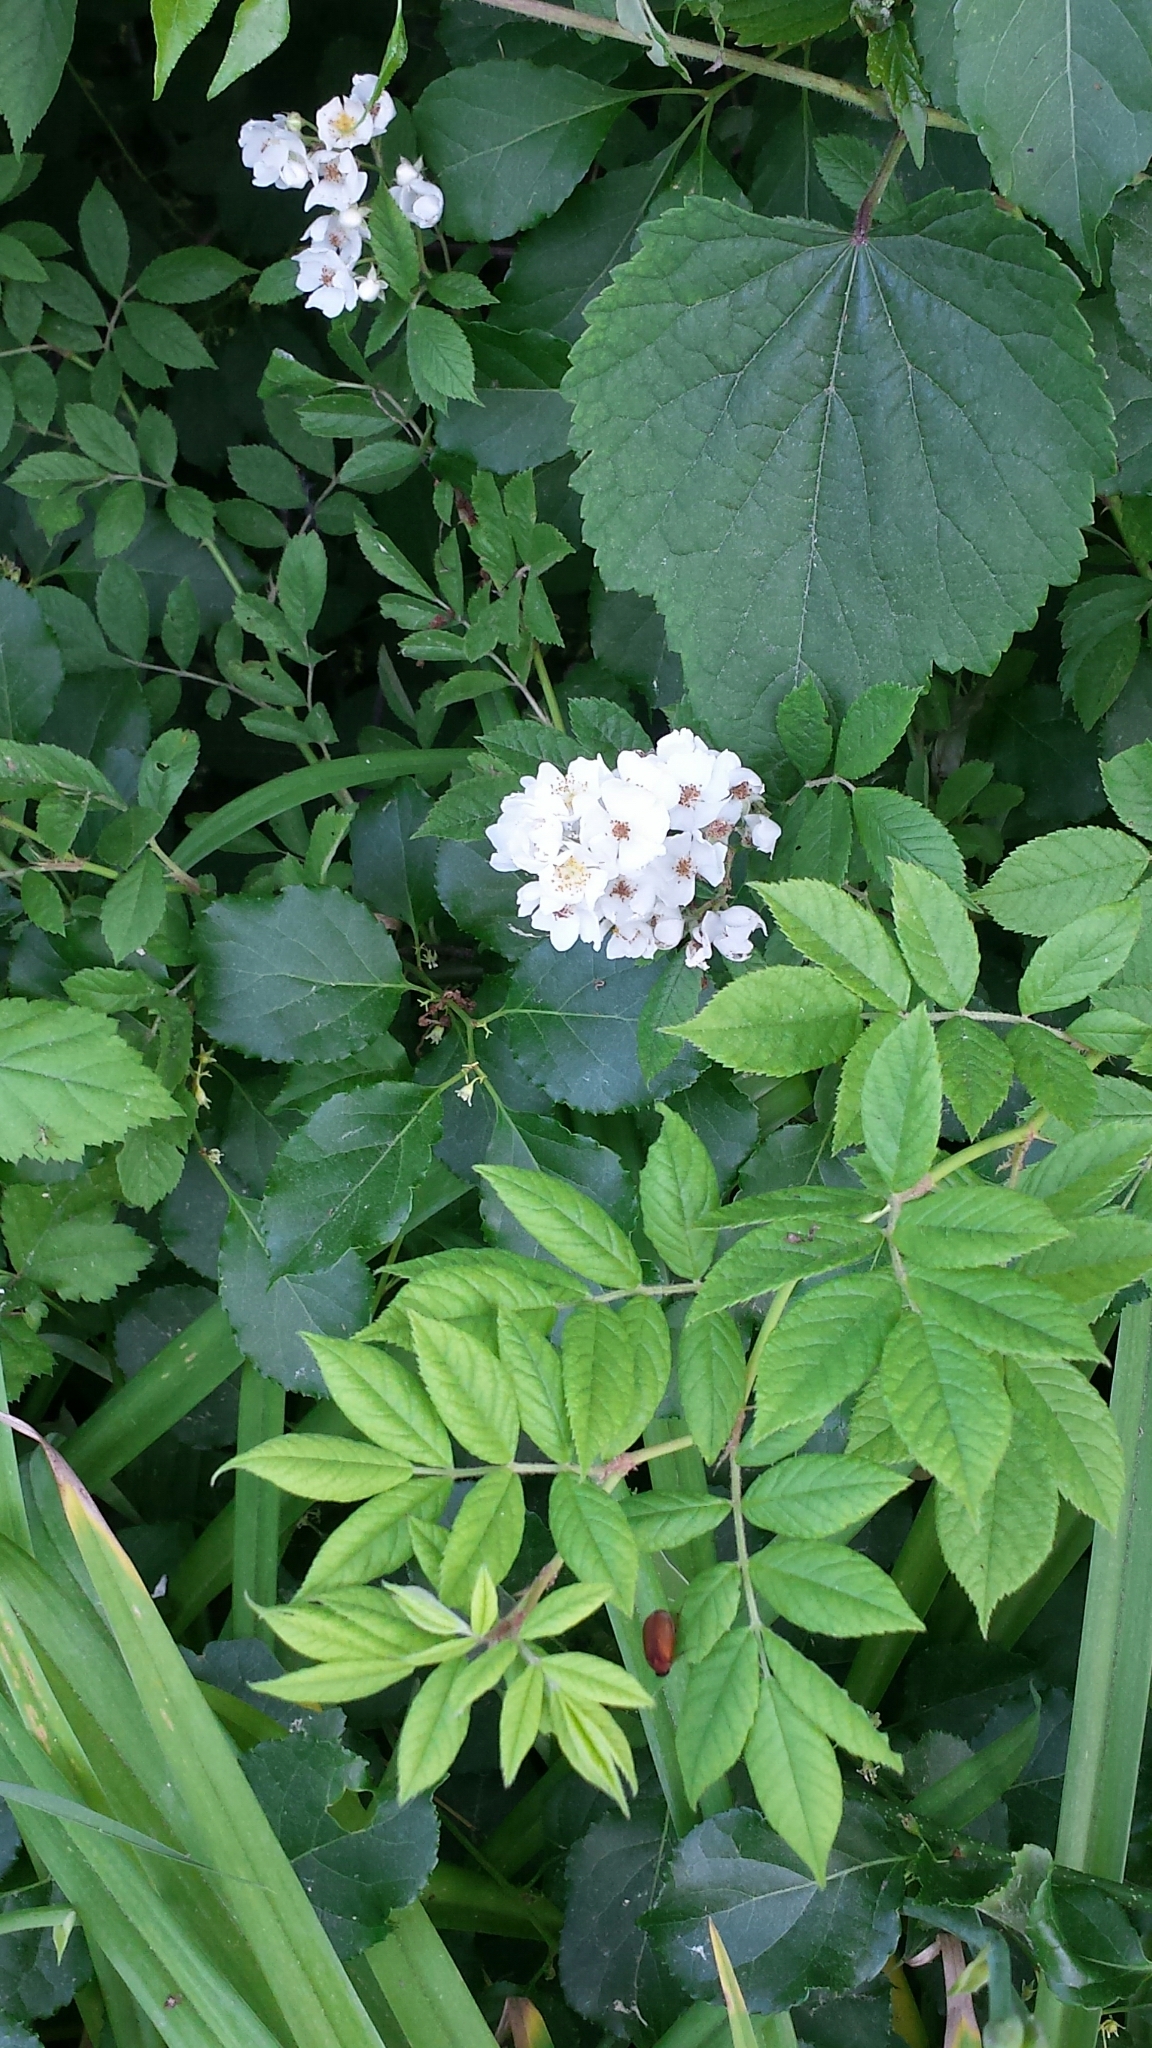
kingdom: Plantae
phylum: Tracheophyta
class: Magnoliopsida
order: Rosales
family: Rosaceae
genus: Rosa
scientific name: Rosa multiflora
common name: Multiflora rose
